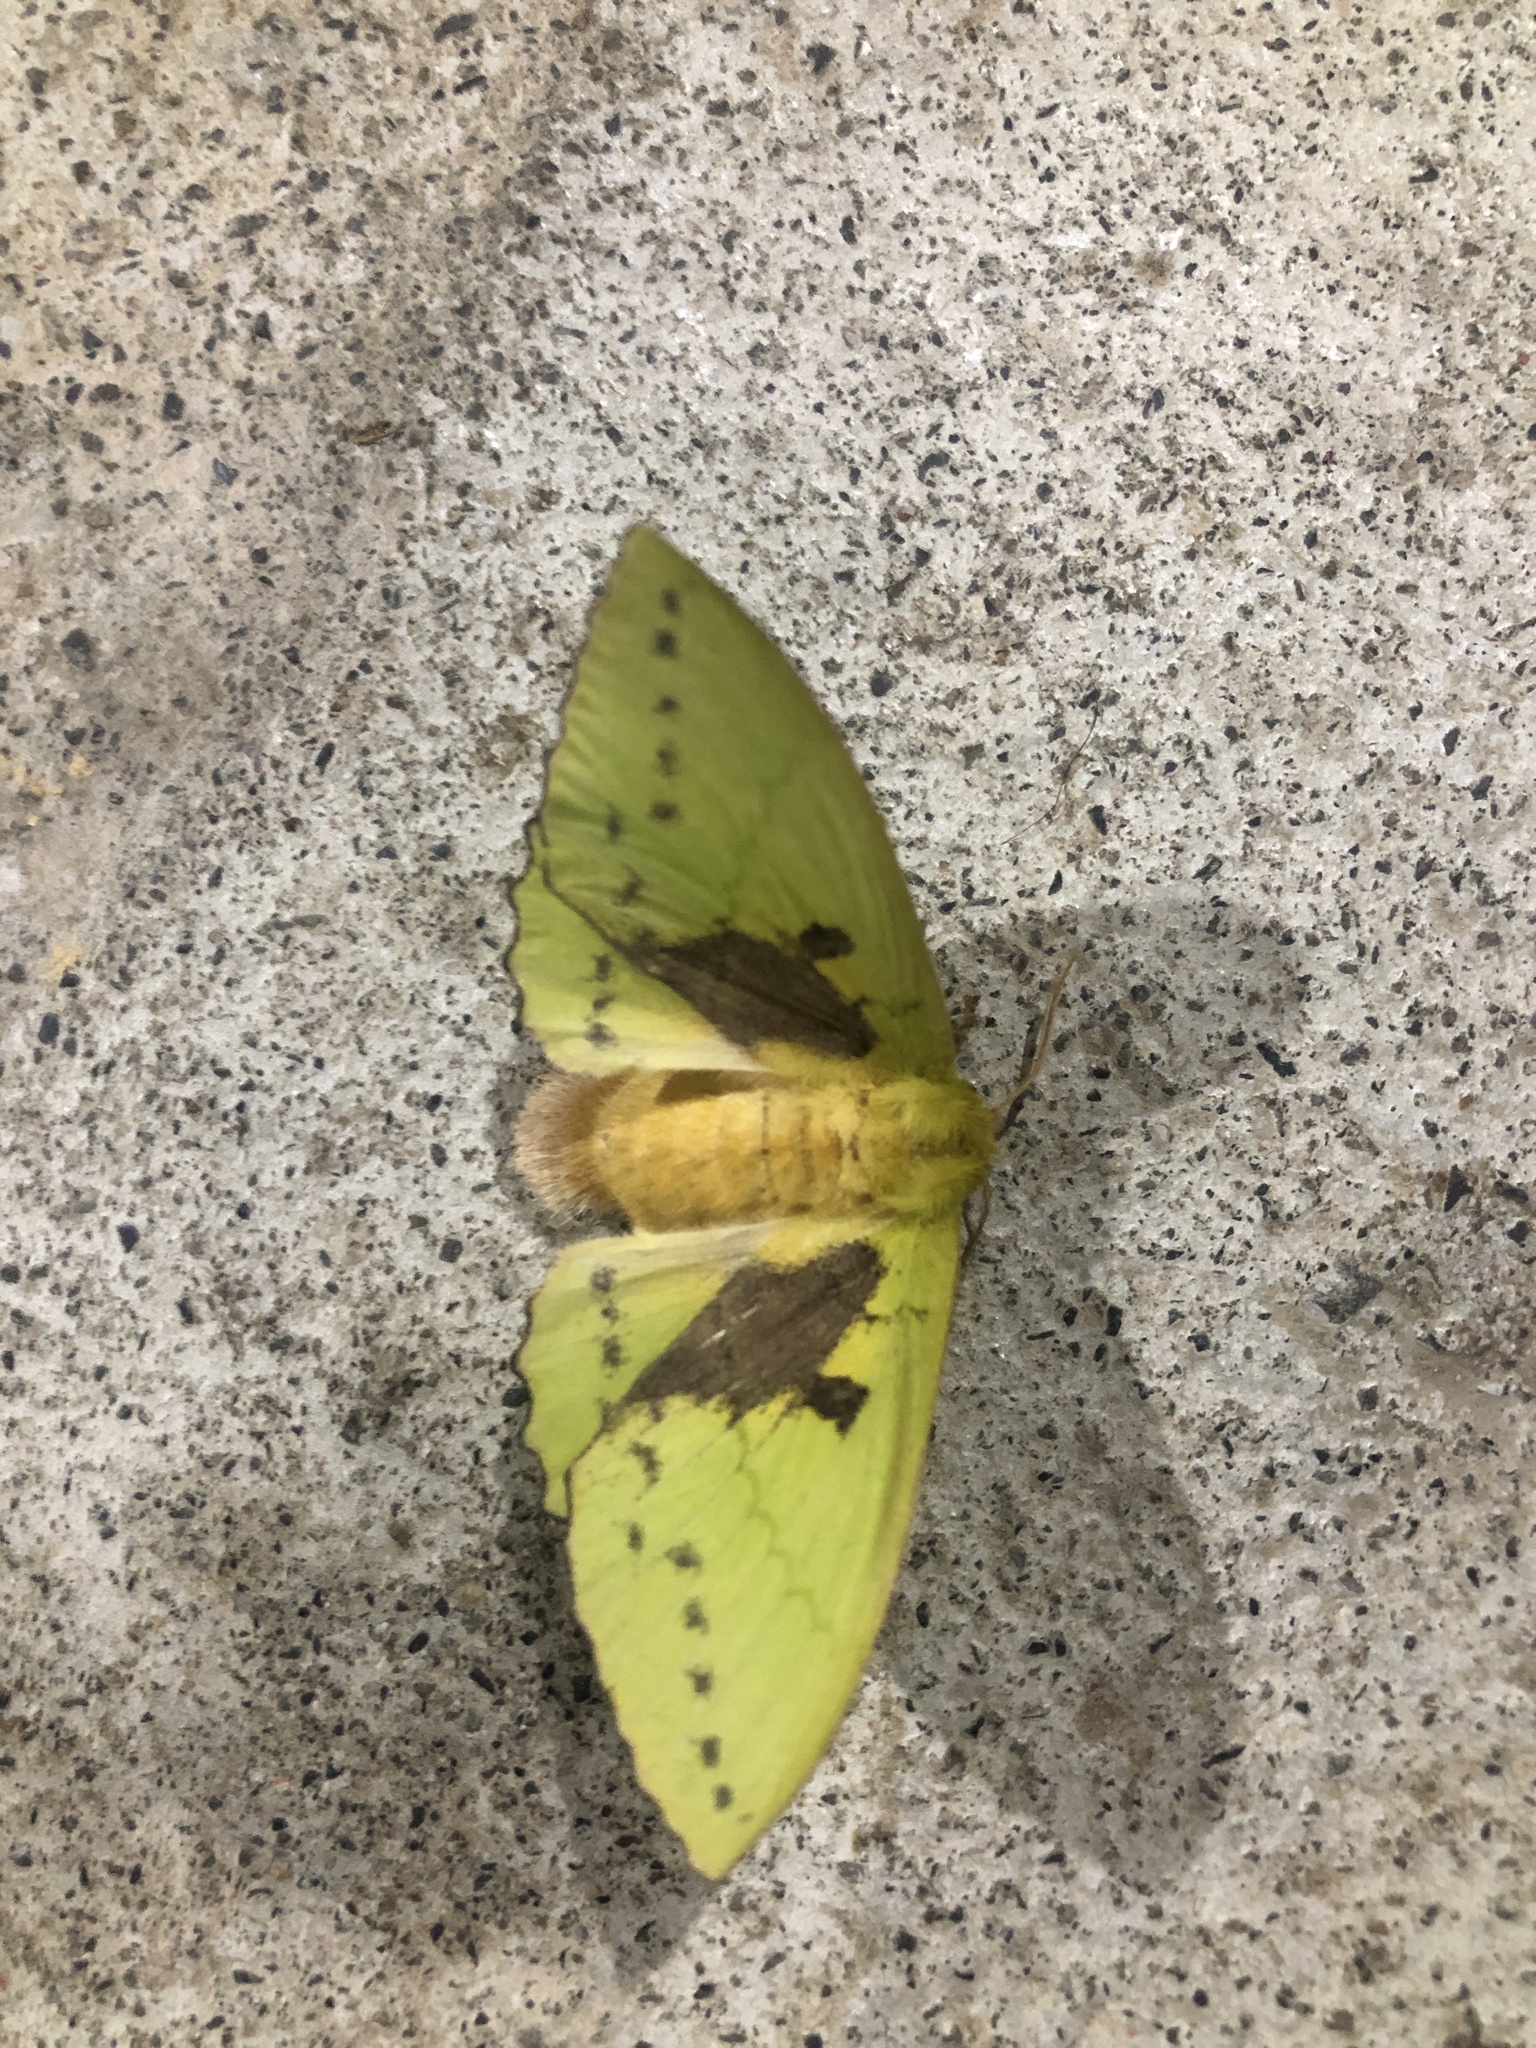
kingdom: Animalia
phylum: Arthropoda
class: Insecta
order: Lepidoptera
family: Lasiocampidae
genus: Trabala
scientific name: Trabala vishnou
